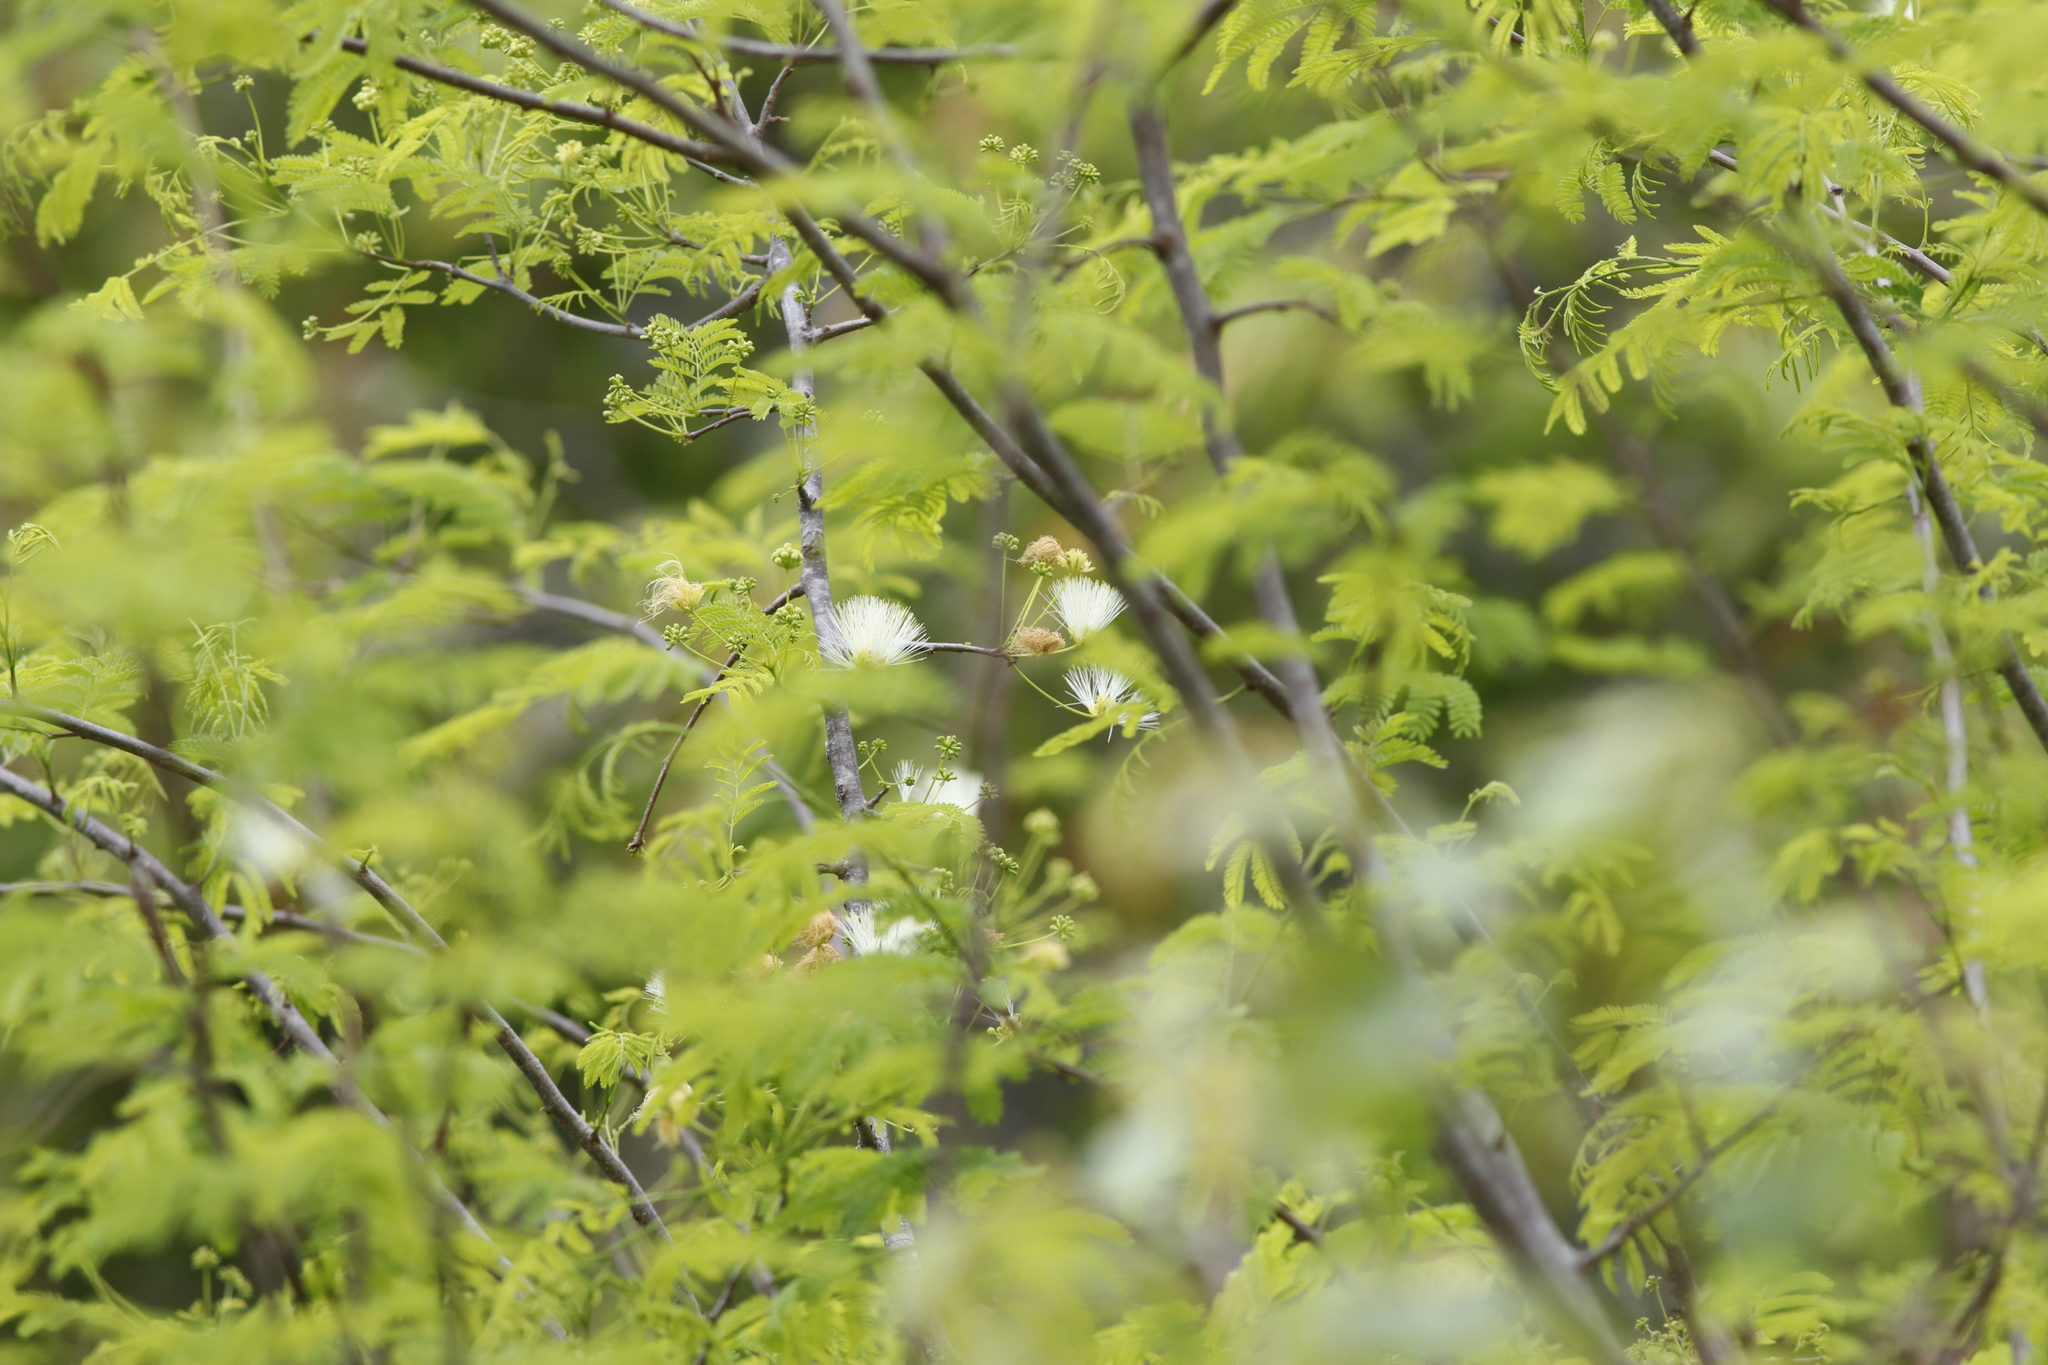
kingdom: Plantae
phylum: Tracheophyta
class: Magnoliopsida
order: Fabales
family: Fabaceae
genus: Albizia
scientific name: Albizia brevifolia
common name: Rock false-thorn
